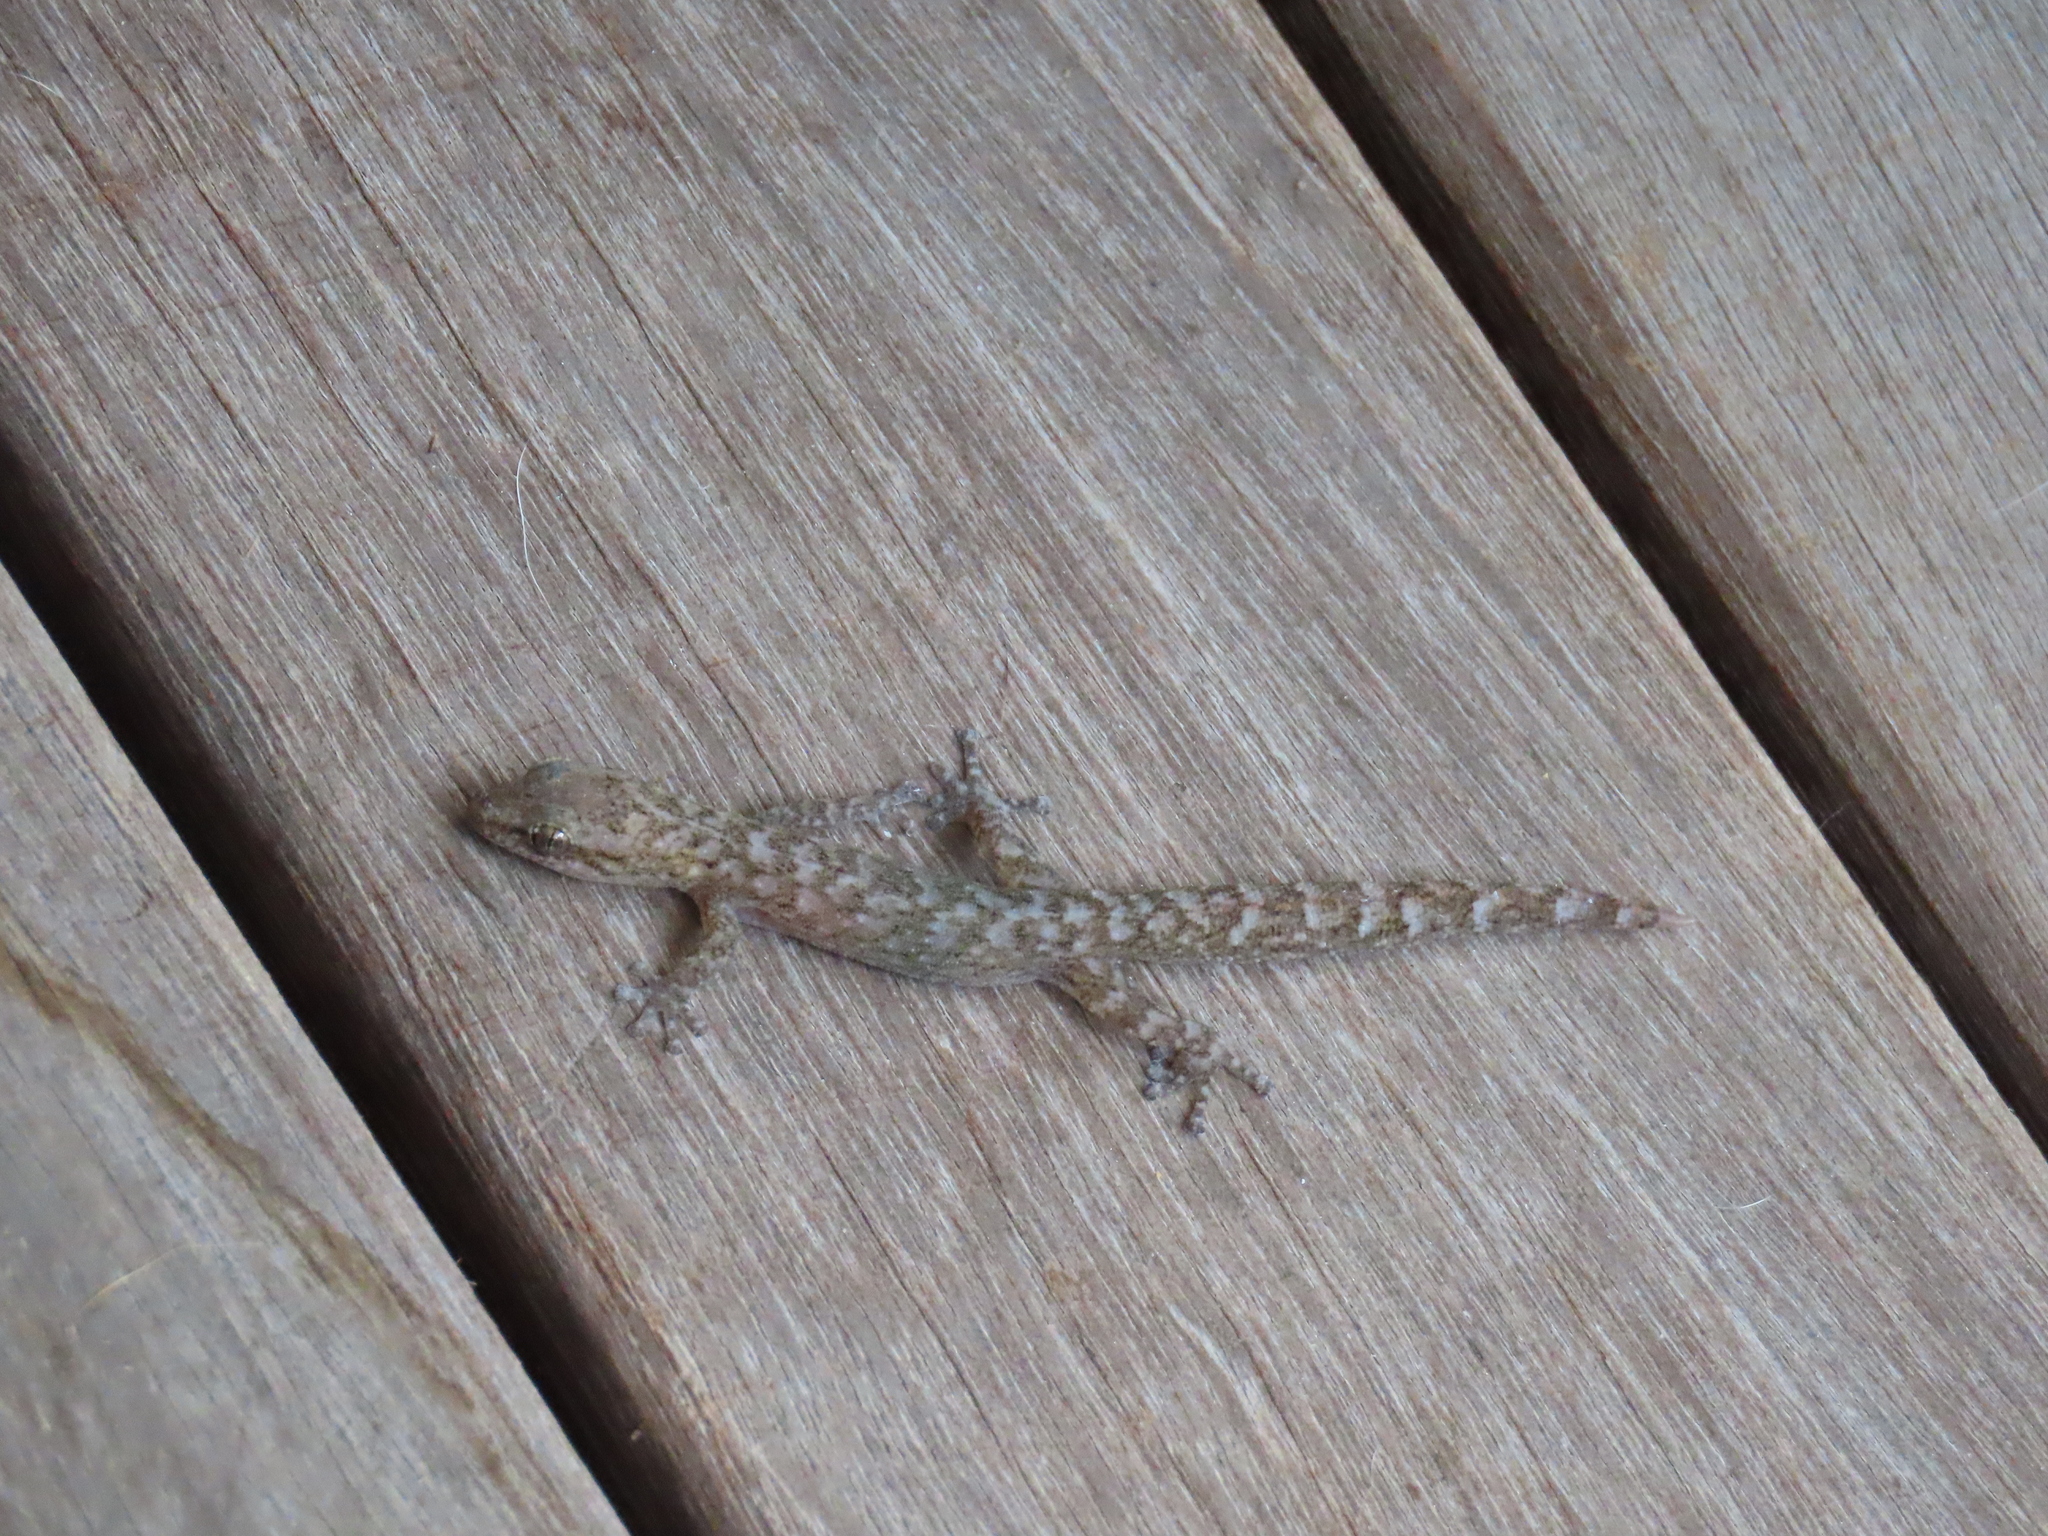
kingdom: Animalia
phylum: Chordata
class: Squamata
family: Gekkonidae
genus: Afrogecko
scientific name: Afrogecko porphyreus
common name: Marbled leaf-toed gecko
